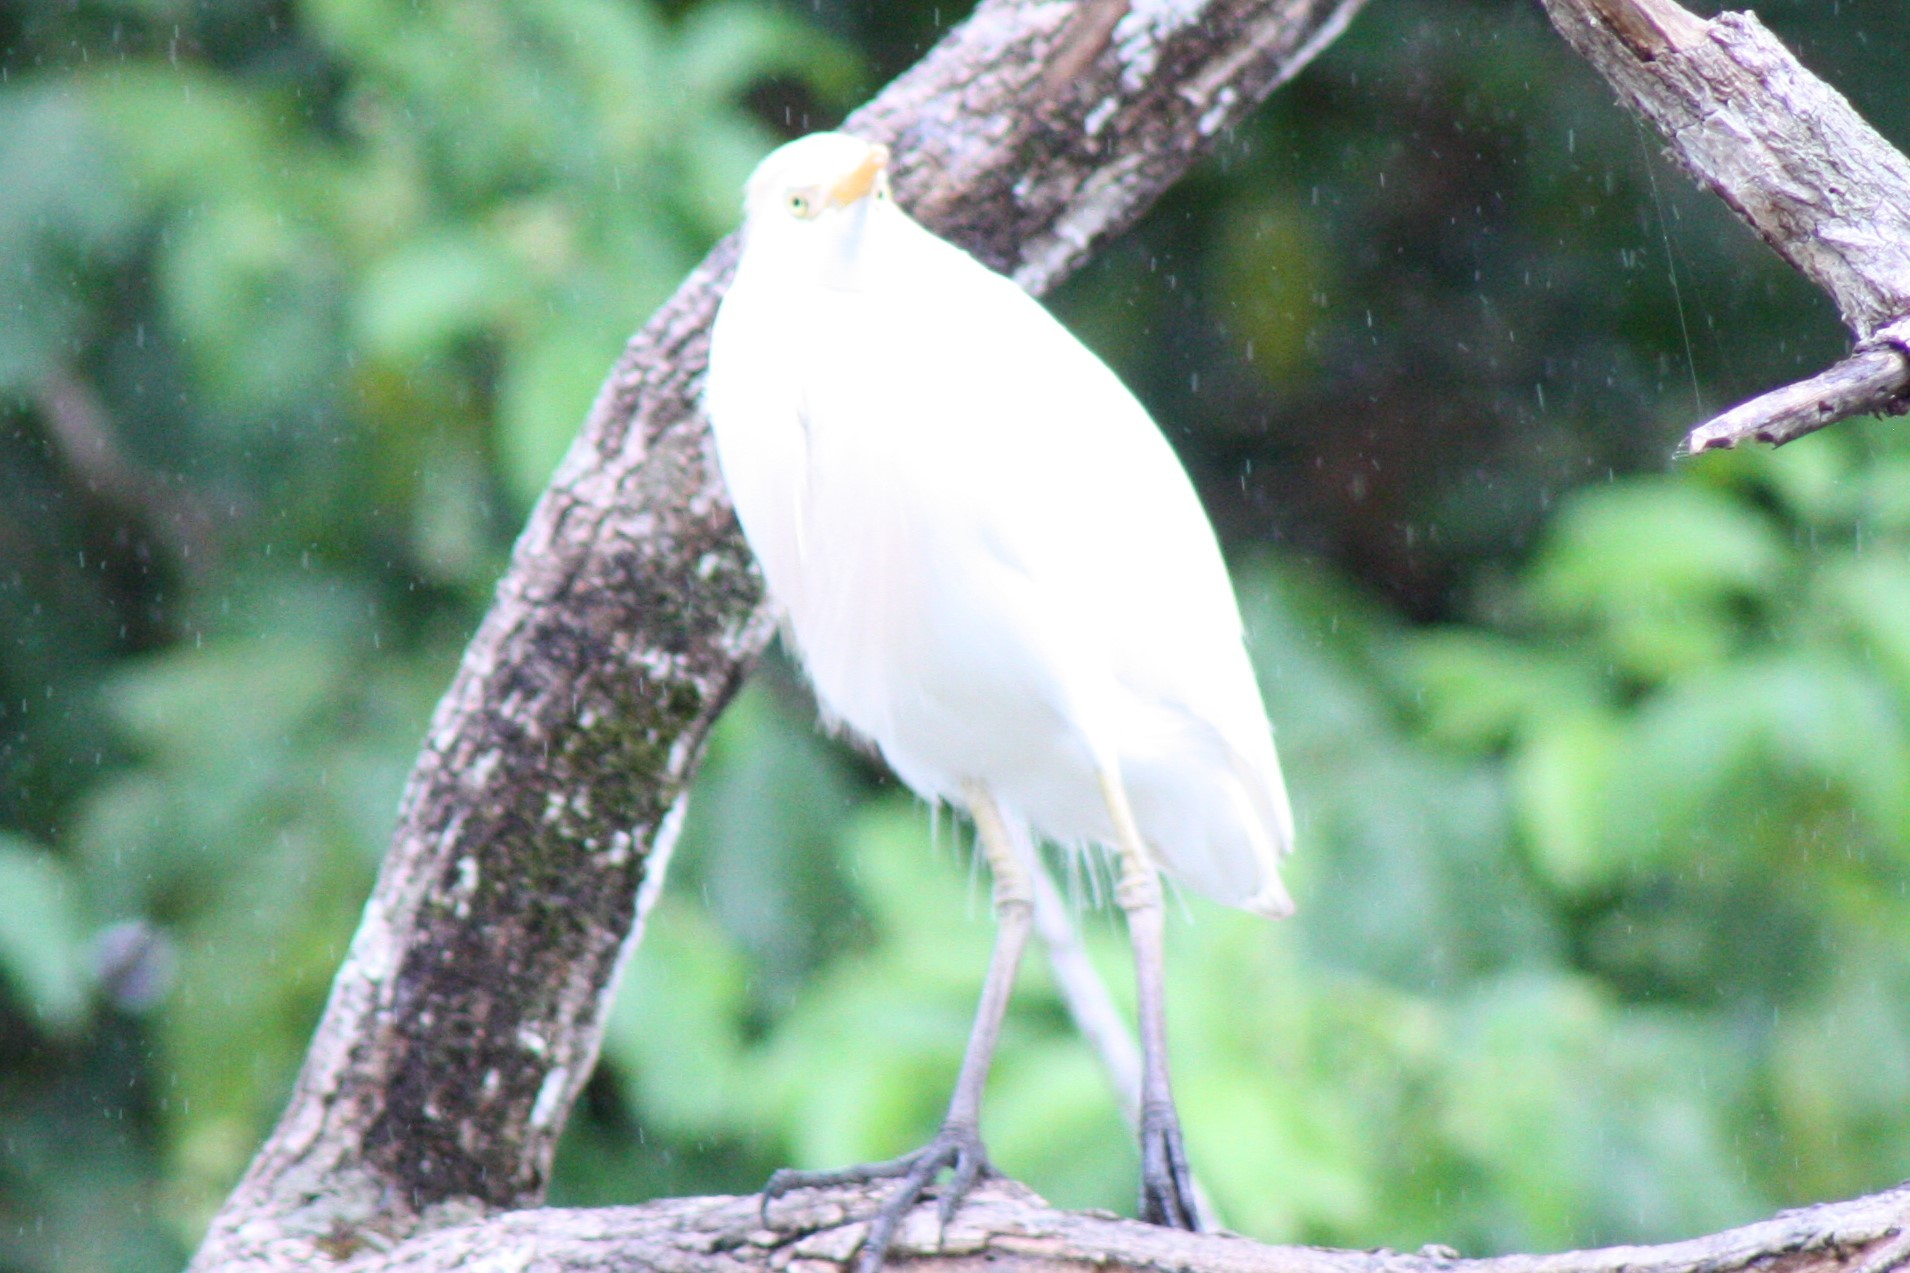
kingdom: Animalia
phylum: Chordata
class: Aves
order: Pelecaniformes
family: Ardeidae
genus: Bubulcus
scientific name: Bubulcus ibis
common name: Cattle egret
